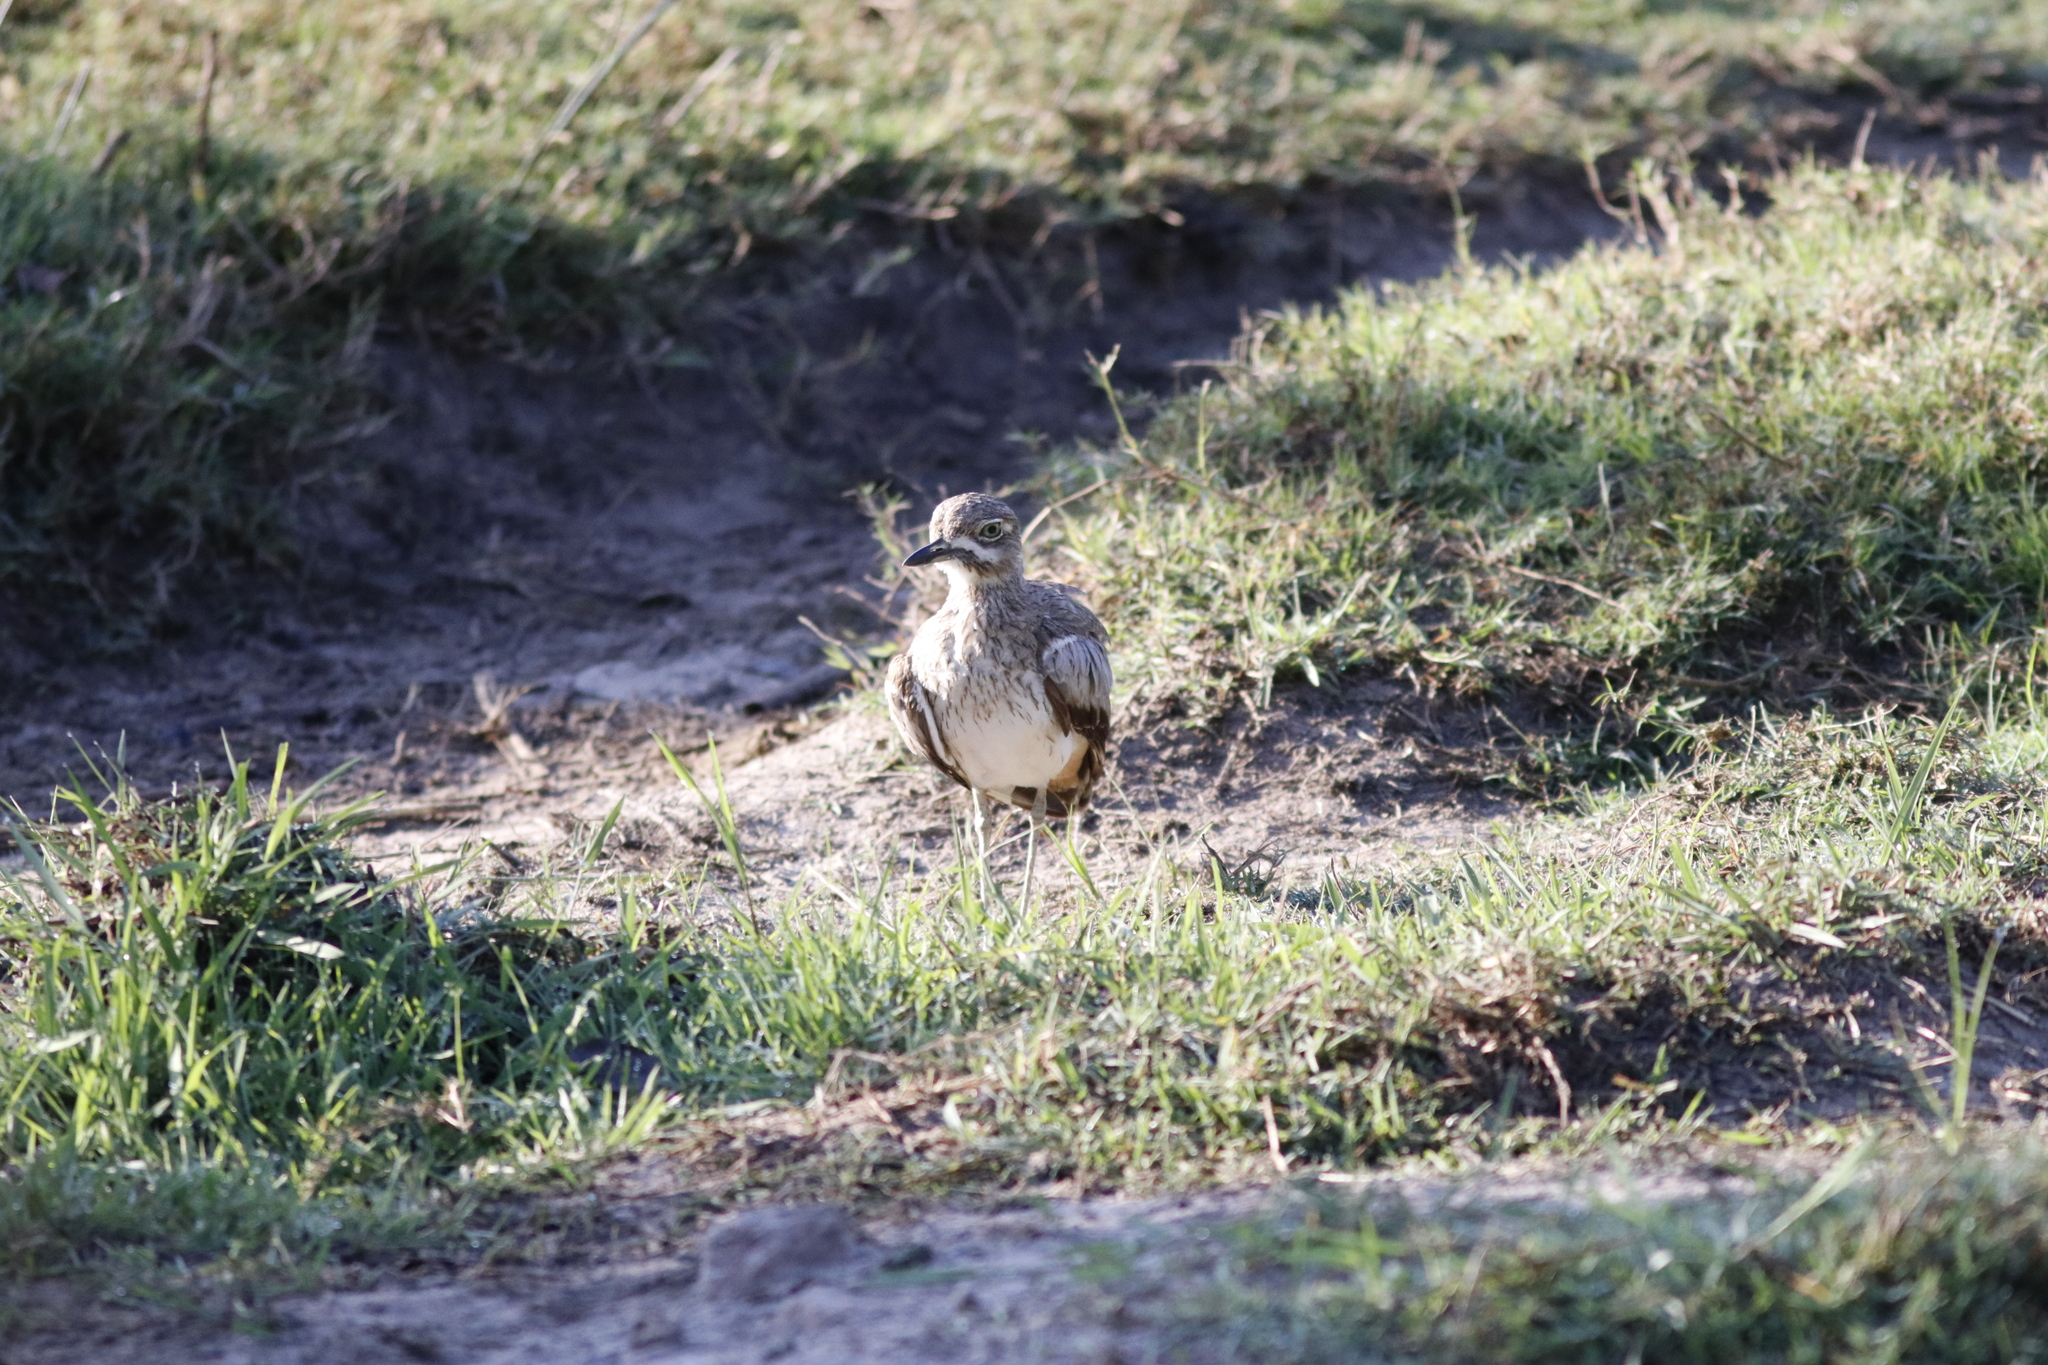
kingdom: Animalia
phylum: Chordata
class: Aves
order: Charadriiformes
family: Burhinidae
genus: Burhinus
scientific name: Burhinus vermiculatus
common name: Water thick-knee
